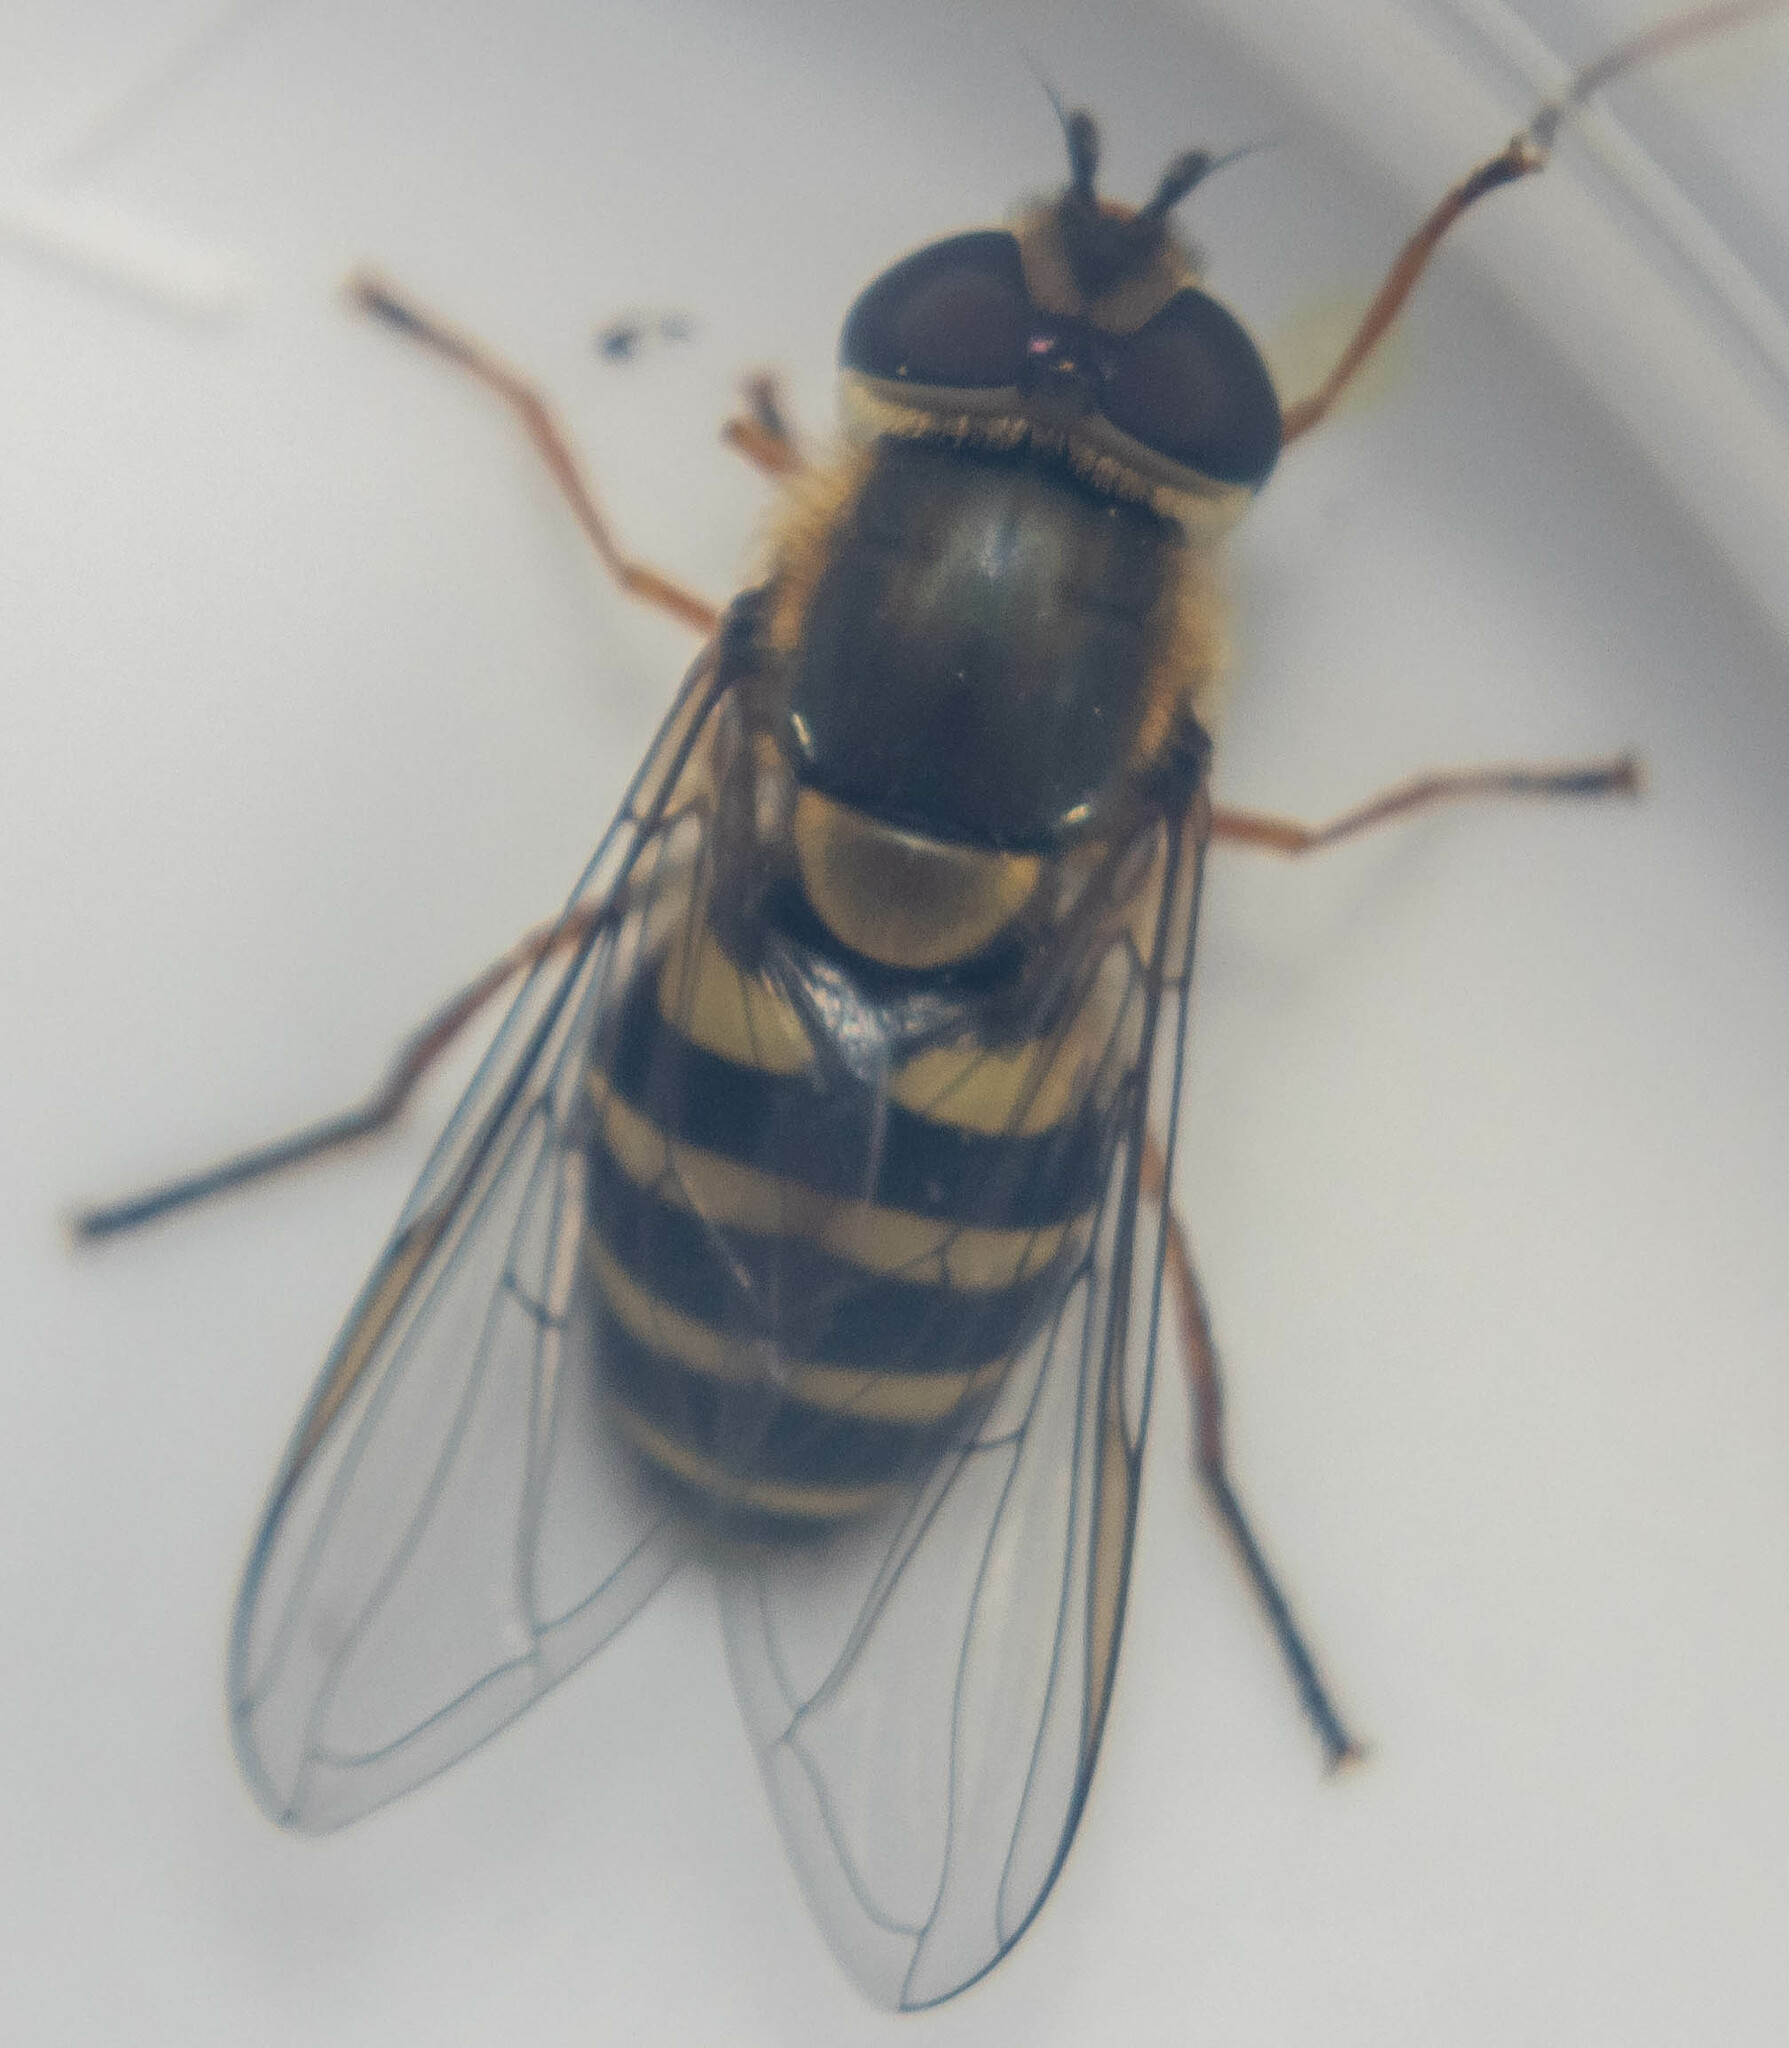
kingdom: Animalia
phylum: Arthropoda
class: Insecta
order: Diptera
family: Syrphidae
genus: Syrphus
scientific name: Syrphus
